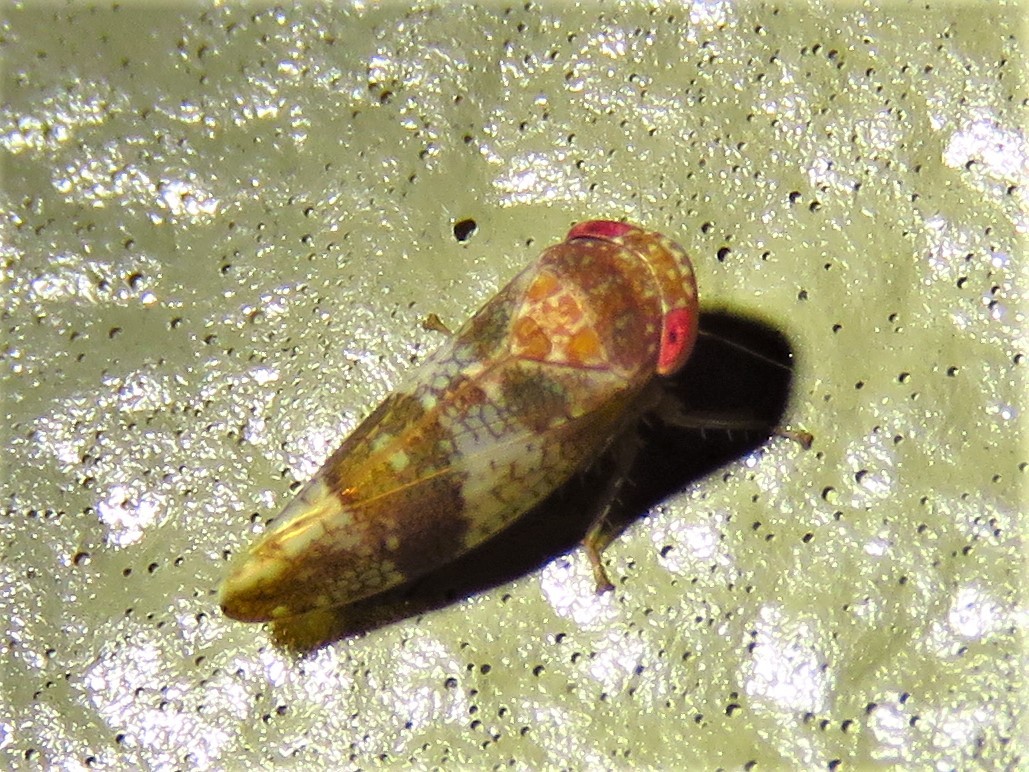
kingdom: Animalia
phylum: Arthropoda
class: Insecta
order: Hemiptera
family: Cicadellidae
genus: Norvellina
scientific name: Norvellina helenae
